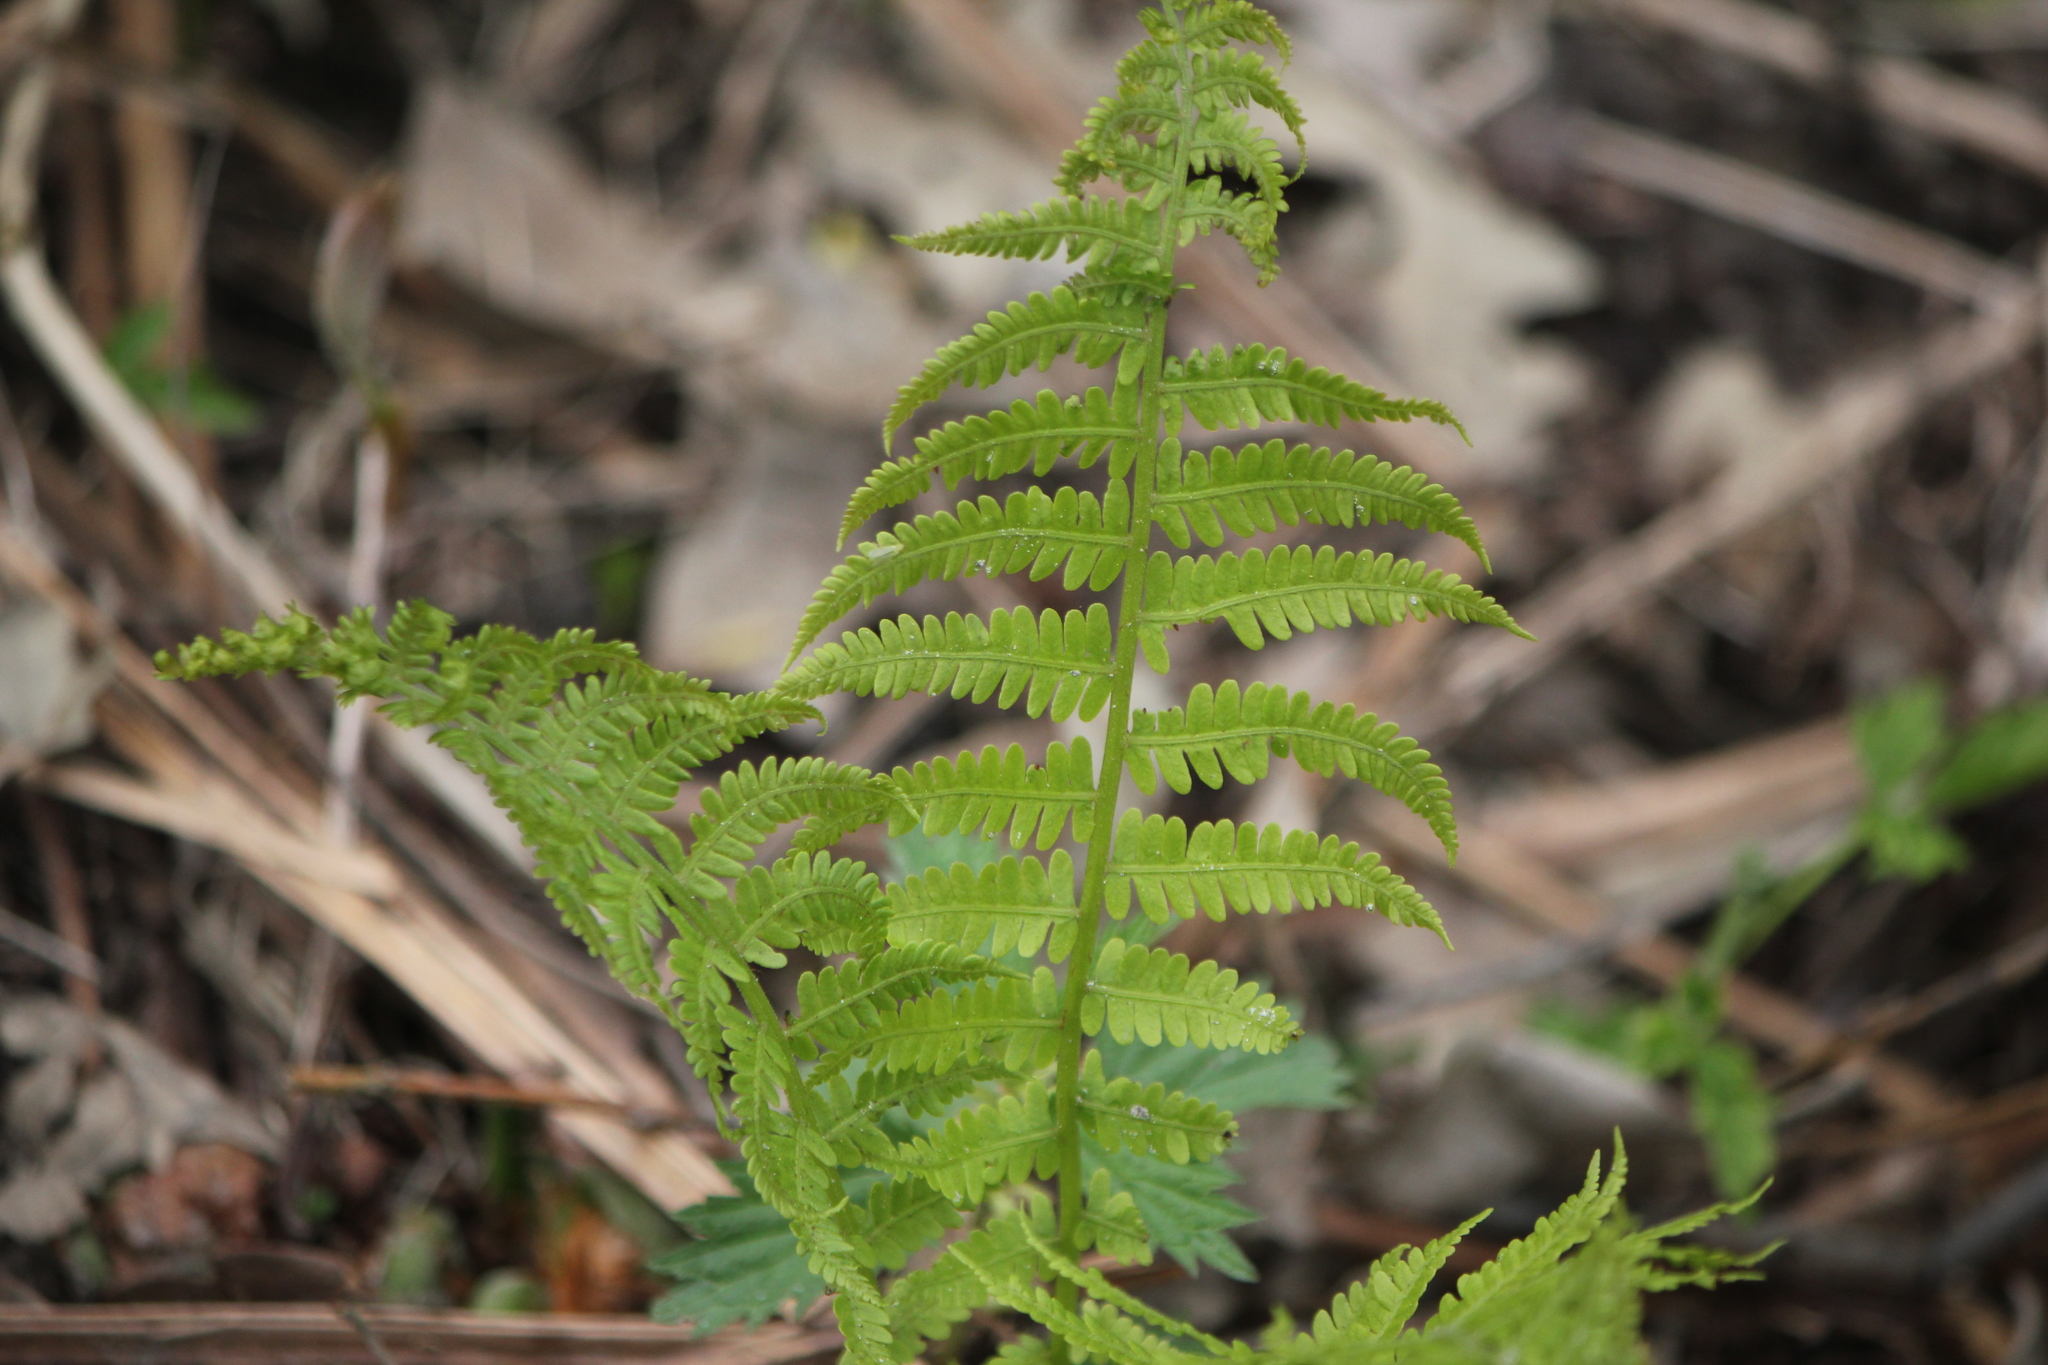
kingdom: Plantae
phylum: Tracheophyta
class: Polypodiopsida
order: Polypodiales
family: Onocleaceae
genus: Matteuccia
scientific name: Matteuccia struthiopteris
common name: Ostrich fern
